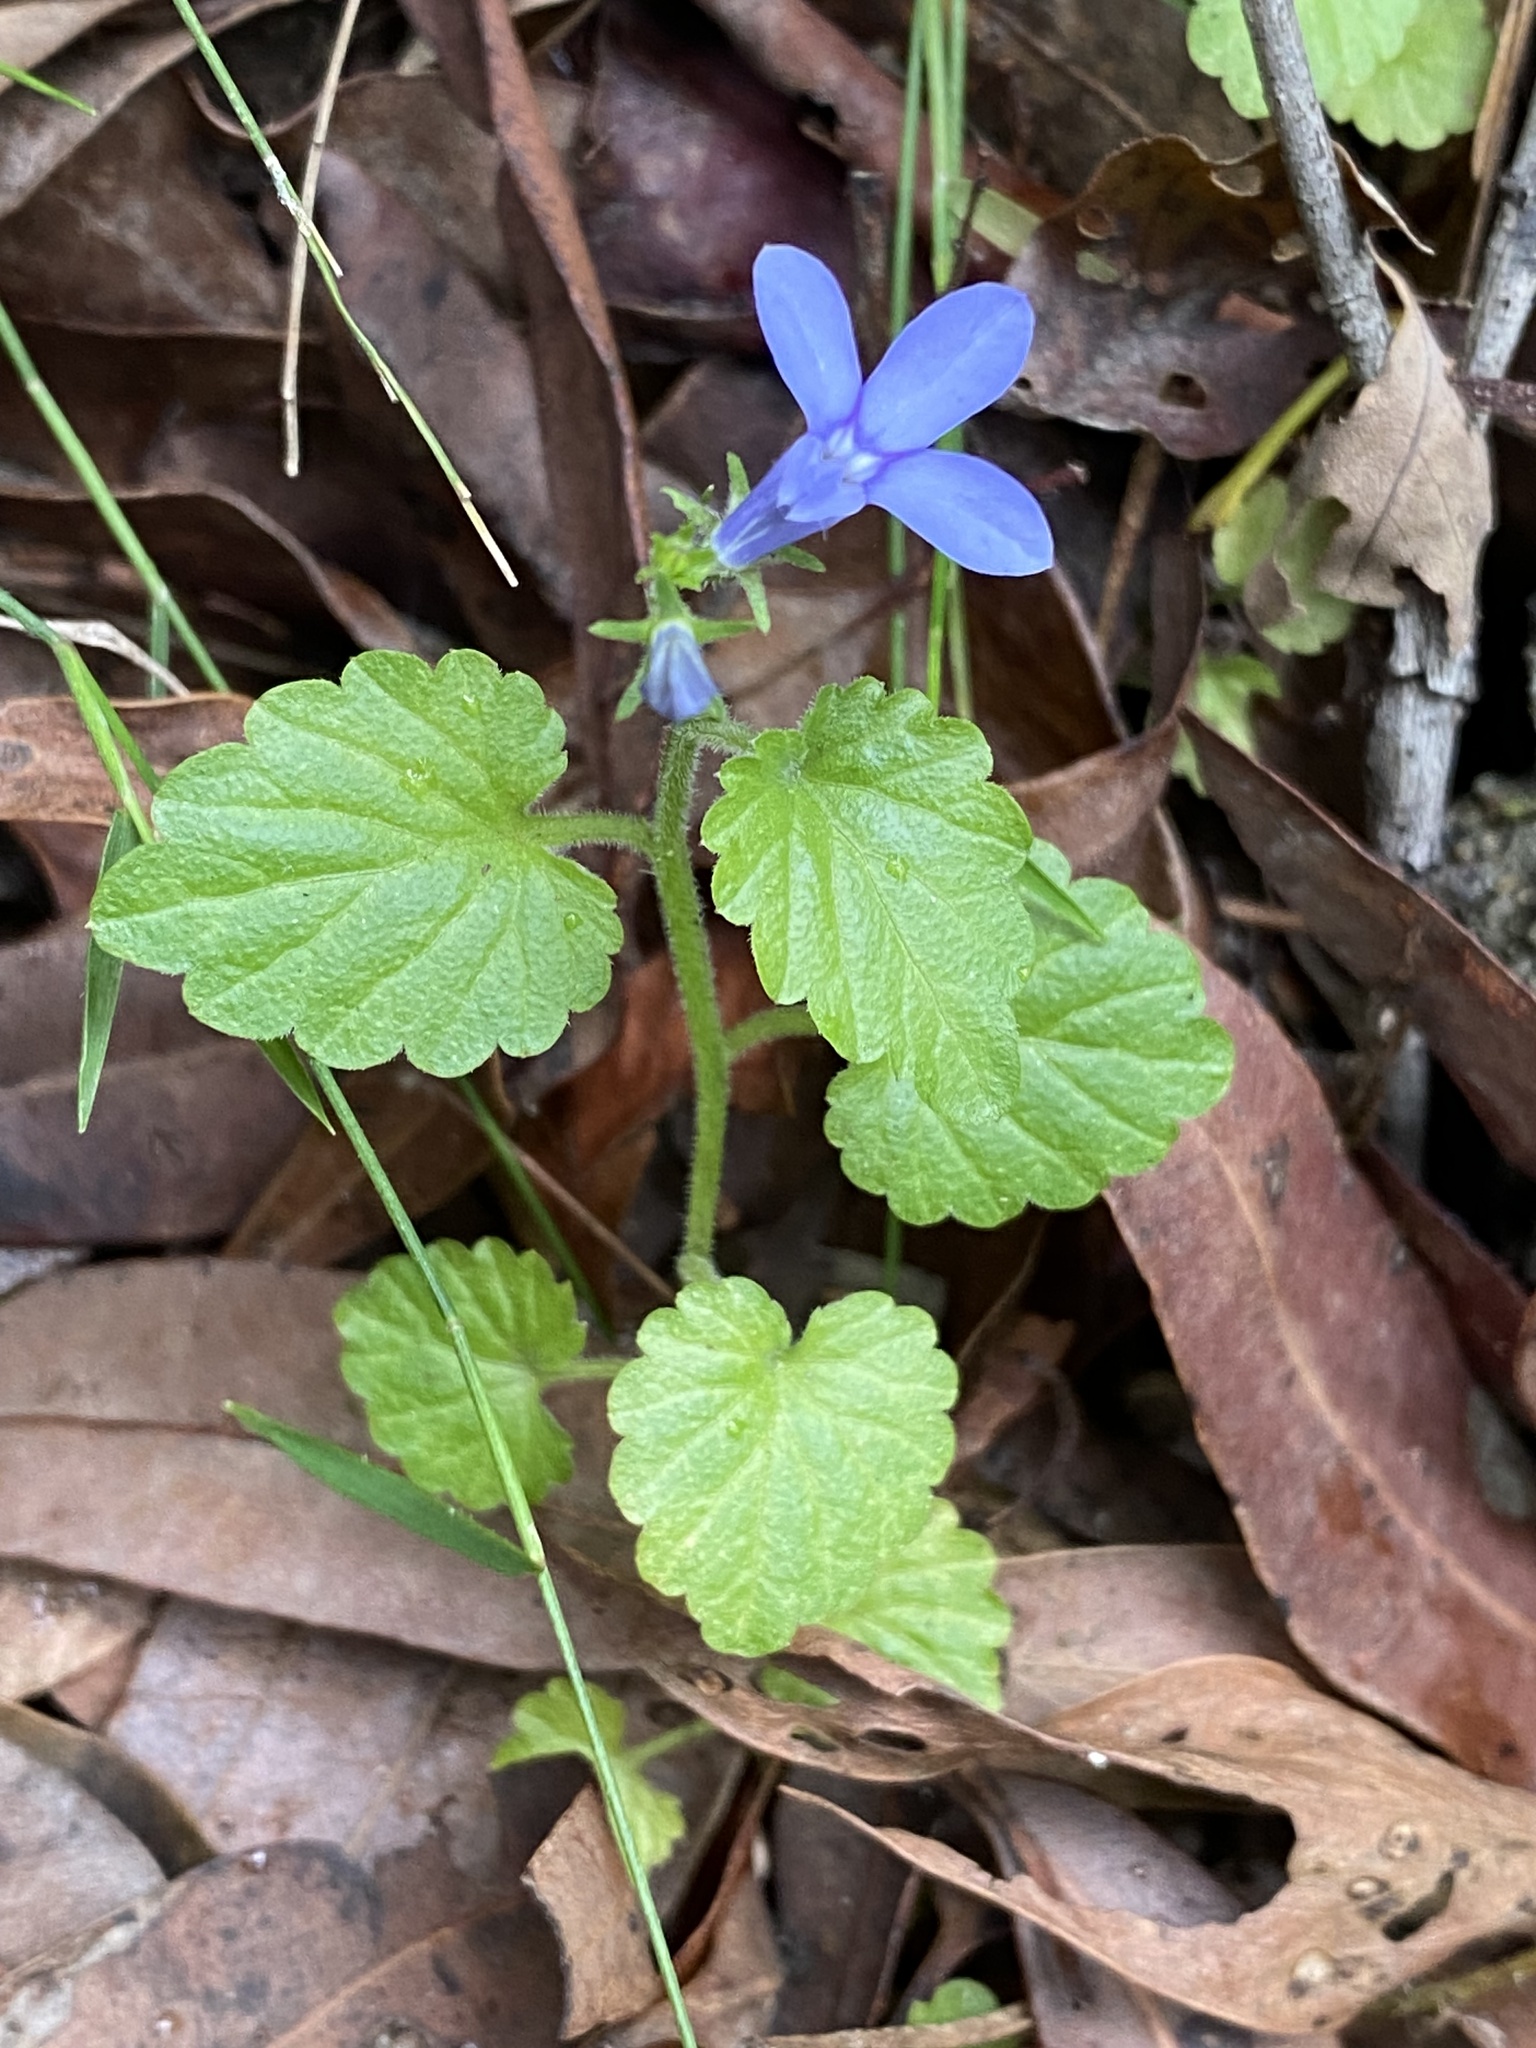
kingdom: Plantae
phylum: Tracheophyta
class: Magnoliopsida
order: Asterales
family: Campanulaceae
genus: Lobelia
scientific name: Lobelia trigonocaulis
